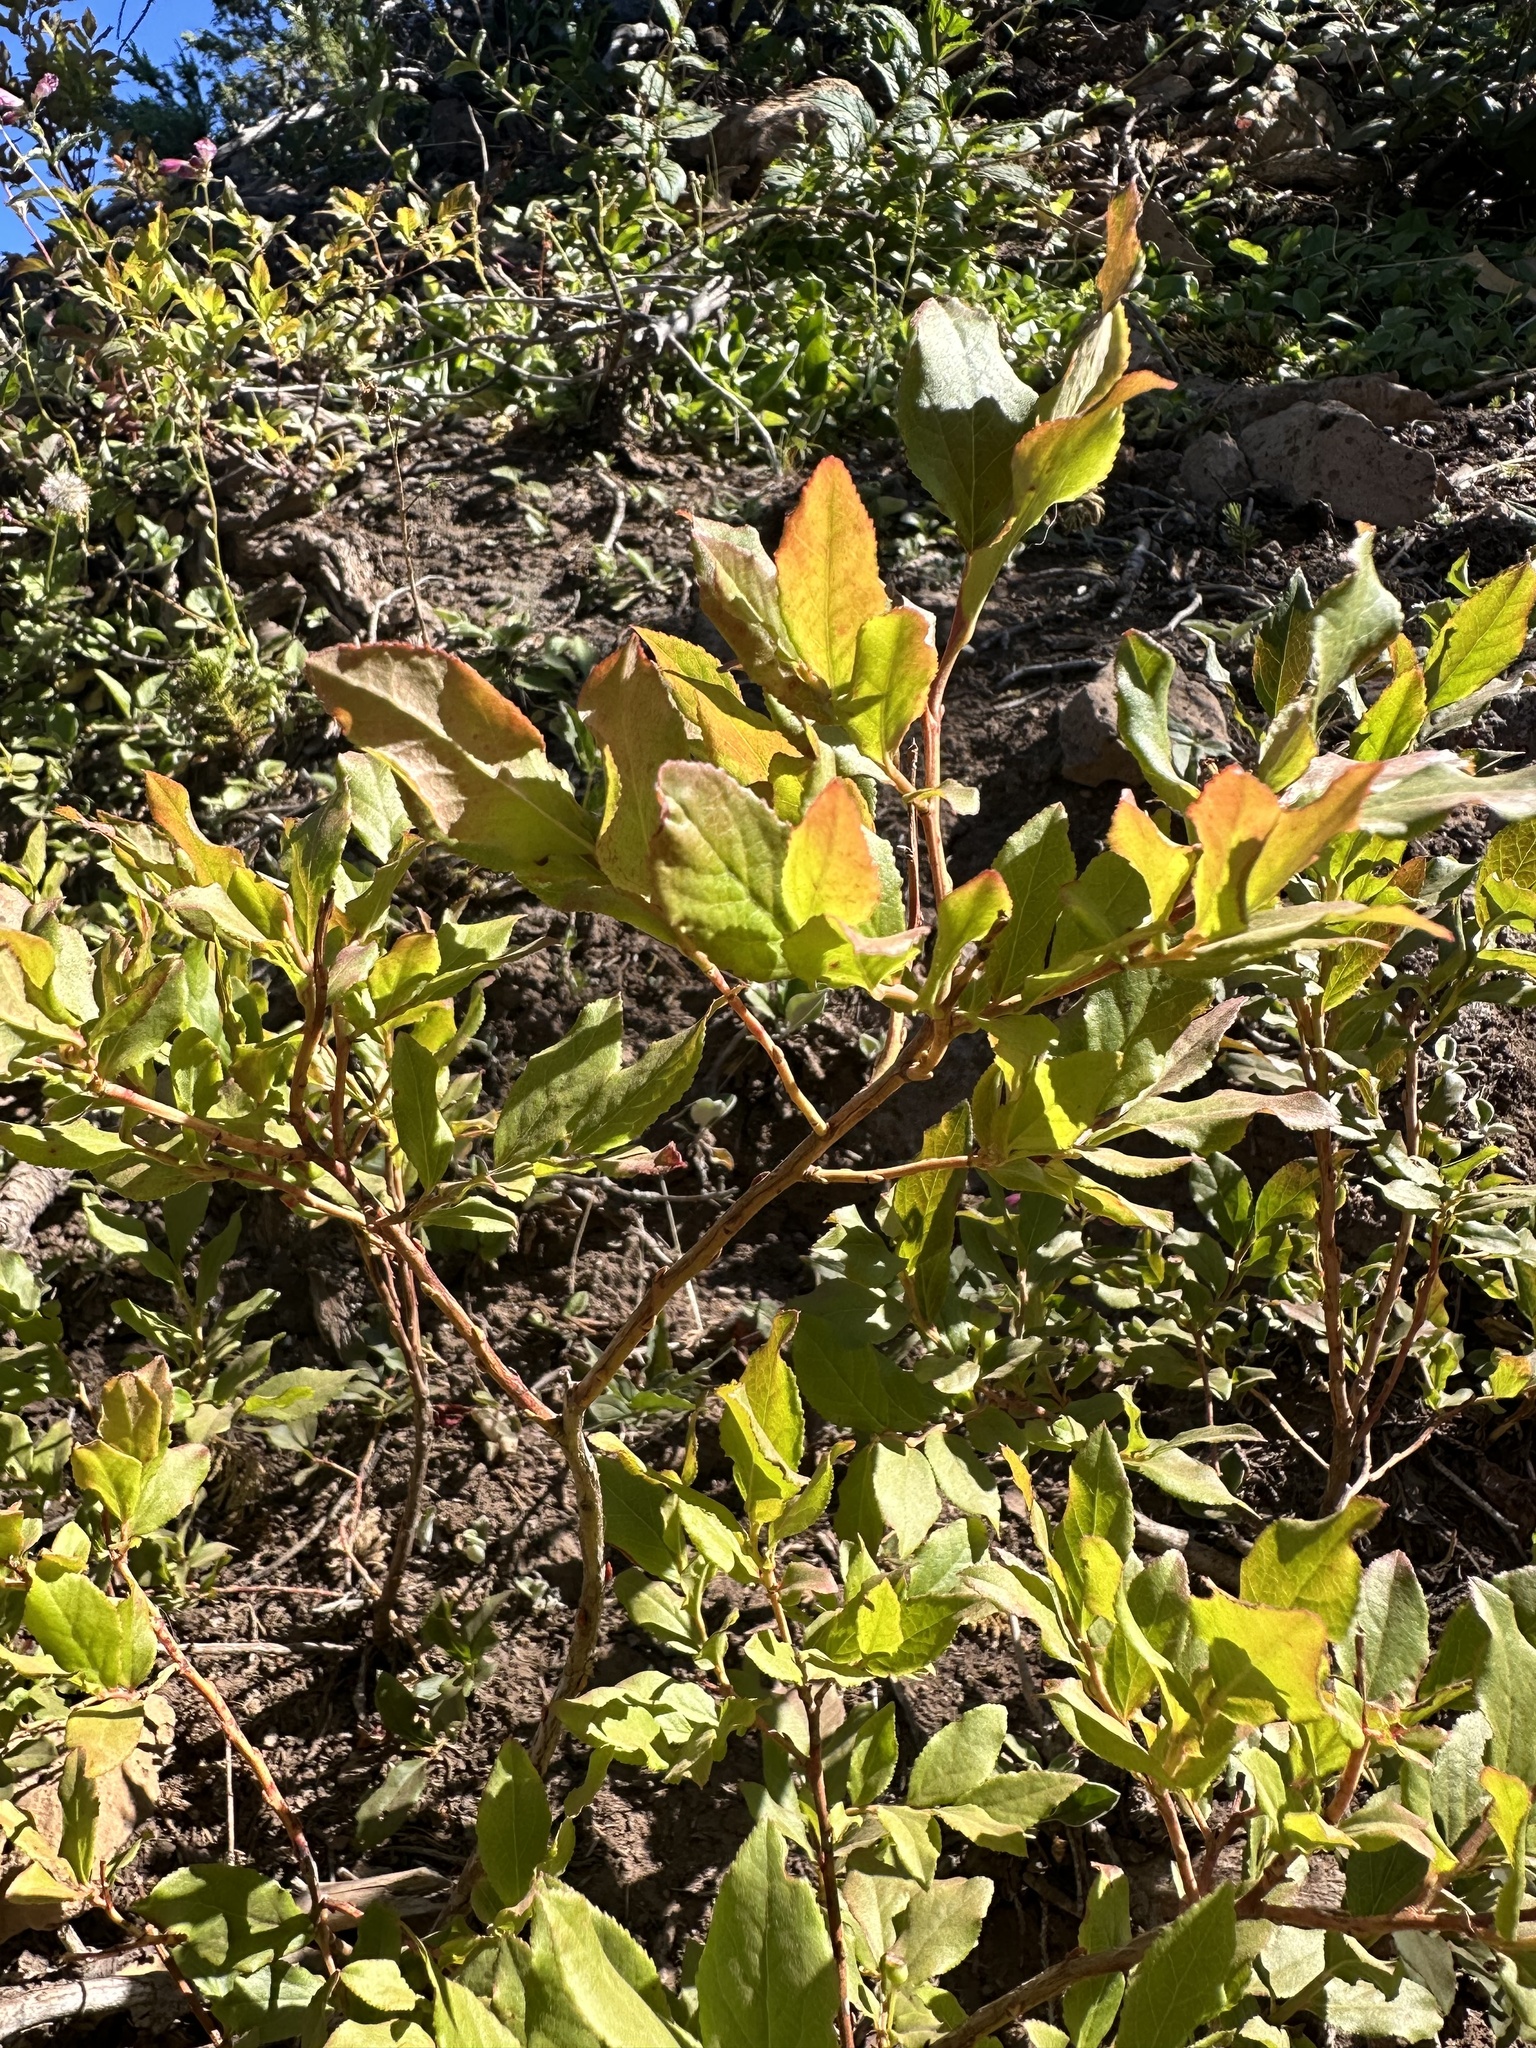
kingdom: Plantae
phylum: Tracheophyta
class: Magnoliopsida
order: Ericales
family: Ericaceae
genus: Vaccinium
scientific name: Vaccinium membranaceum
